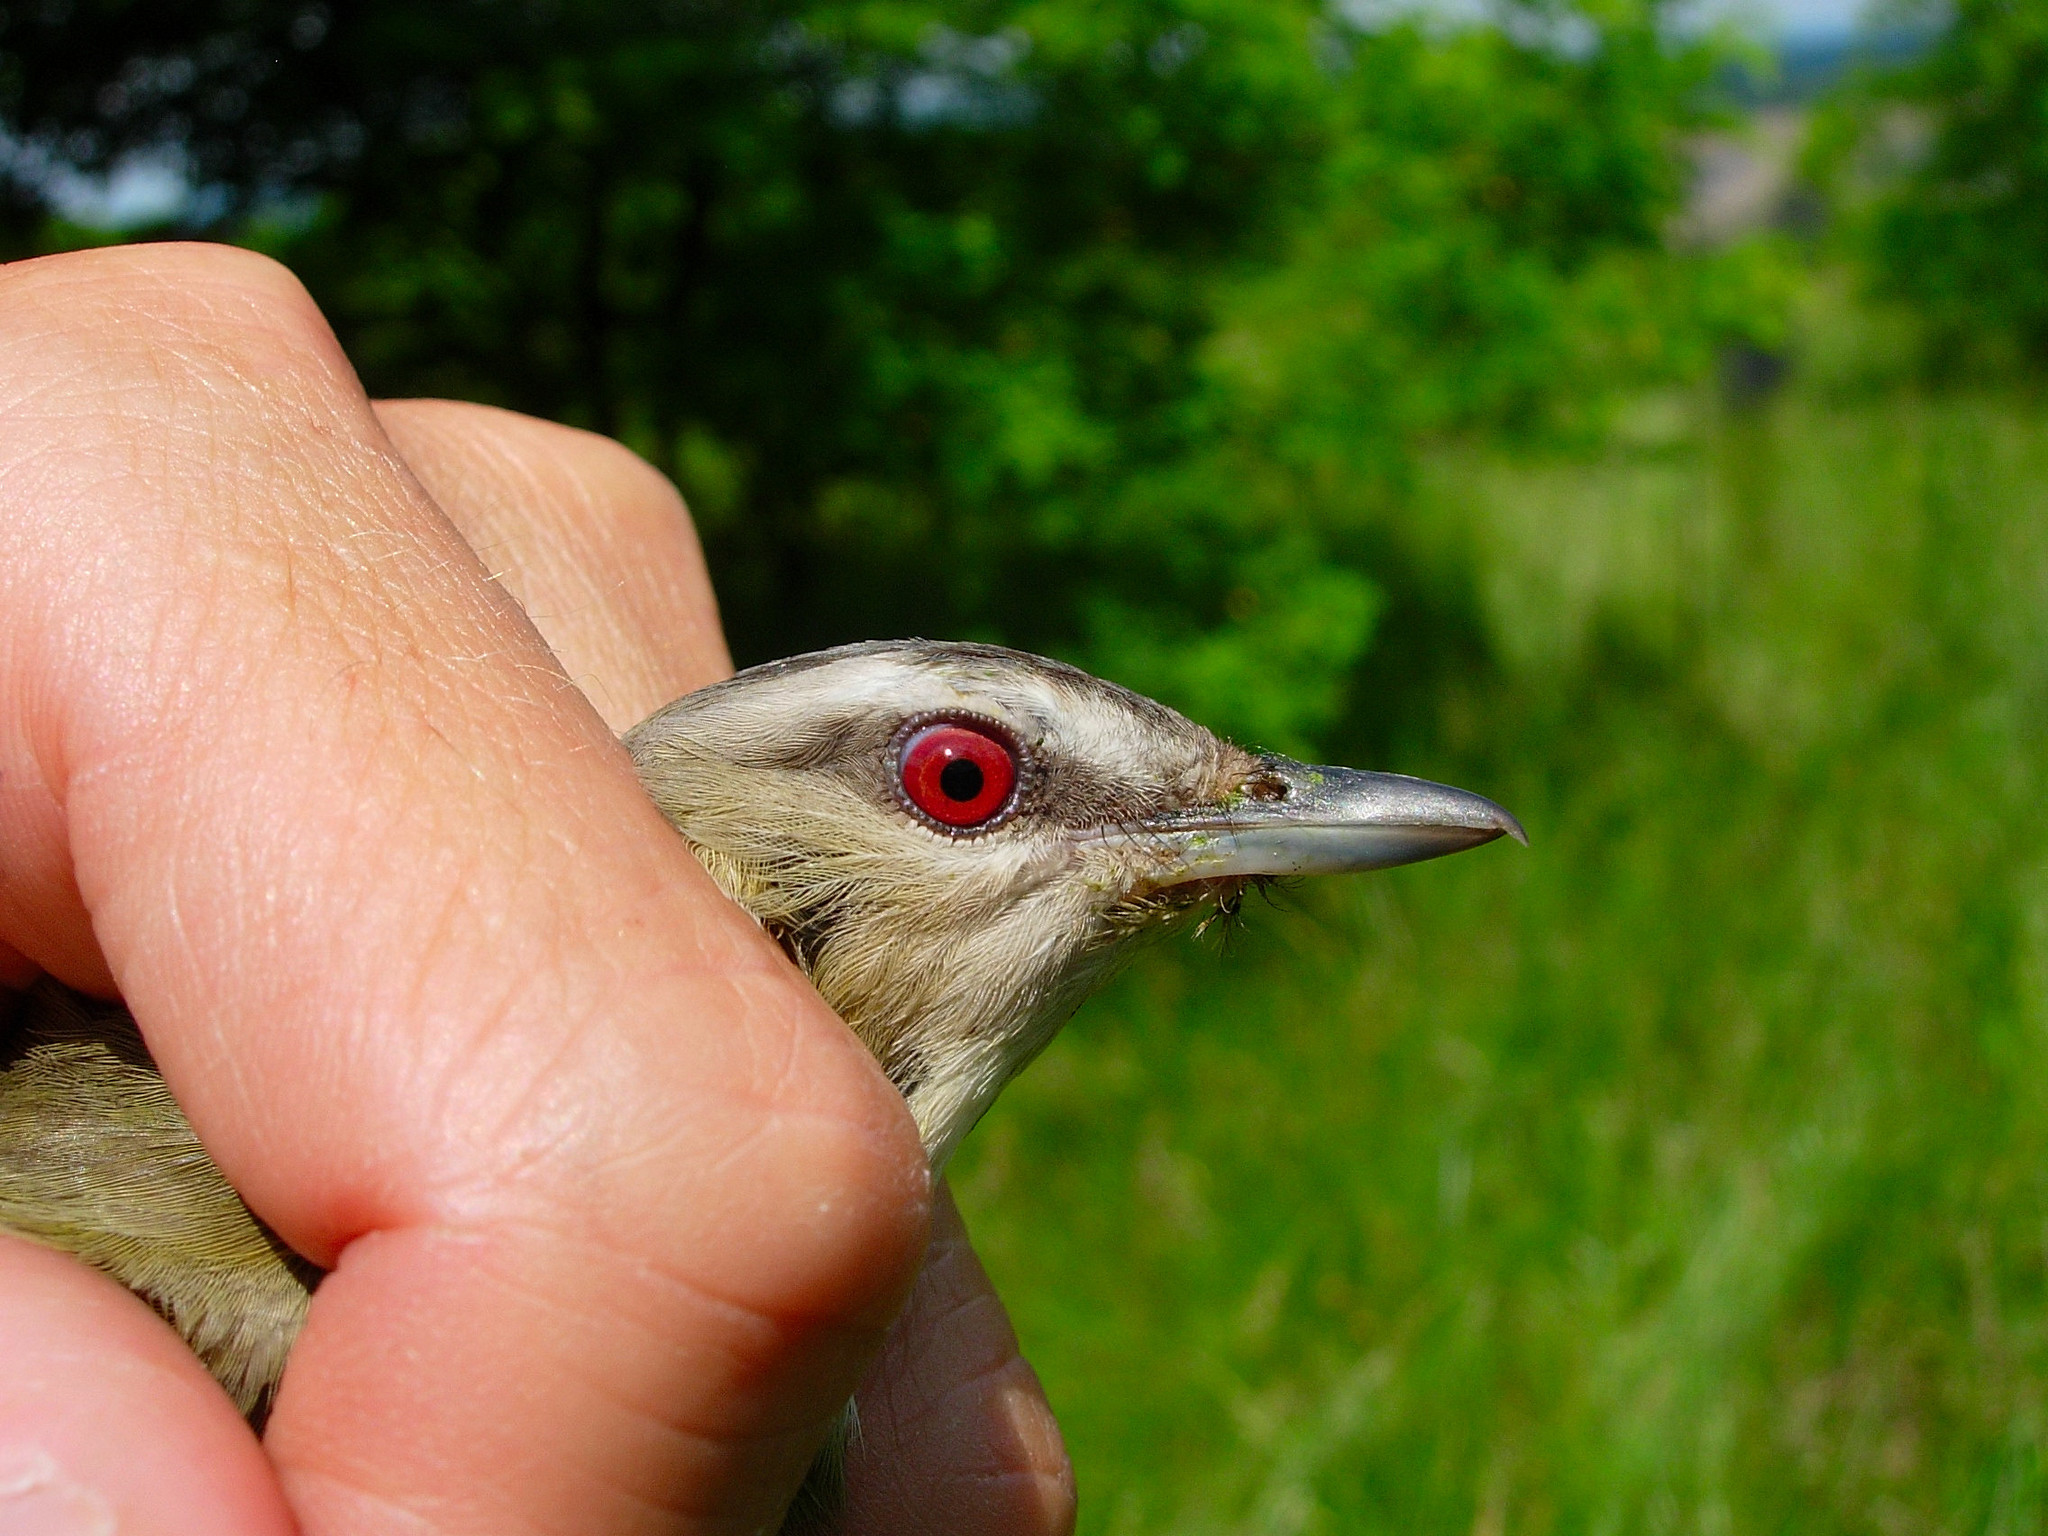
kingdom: Animalia
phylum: Chordata
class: Aves
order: Passeriformes
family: Vireonidae
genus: Vireo
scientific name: Vireo olivaceus
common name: Red-eyed vireo
